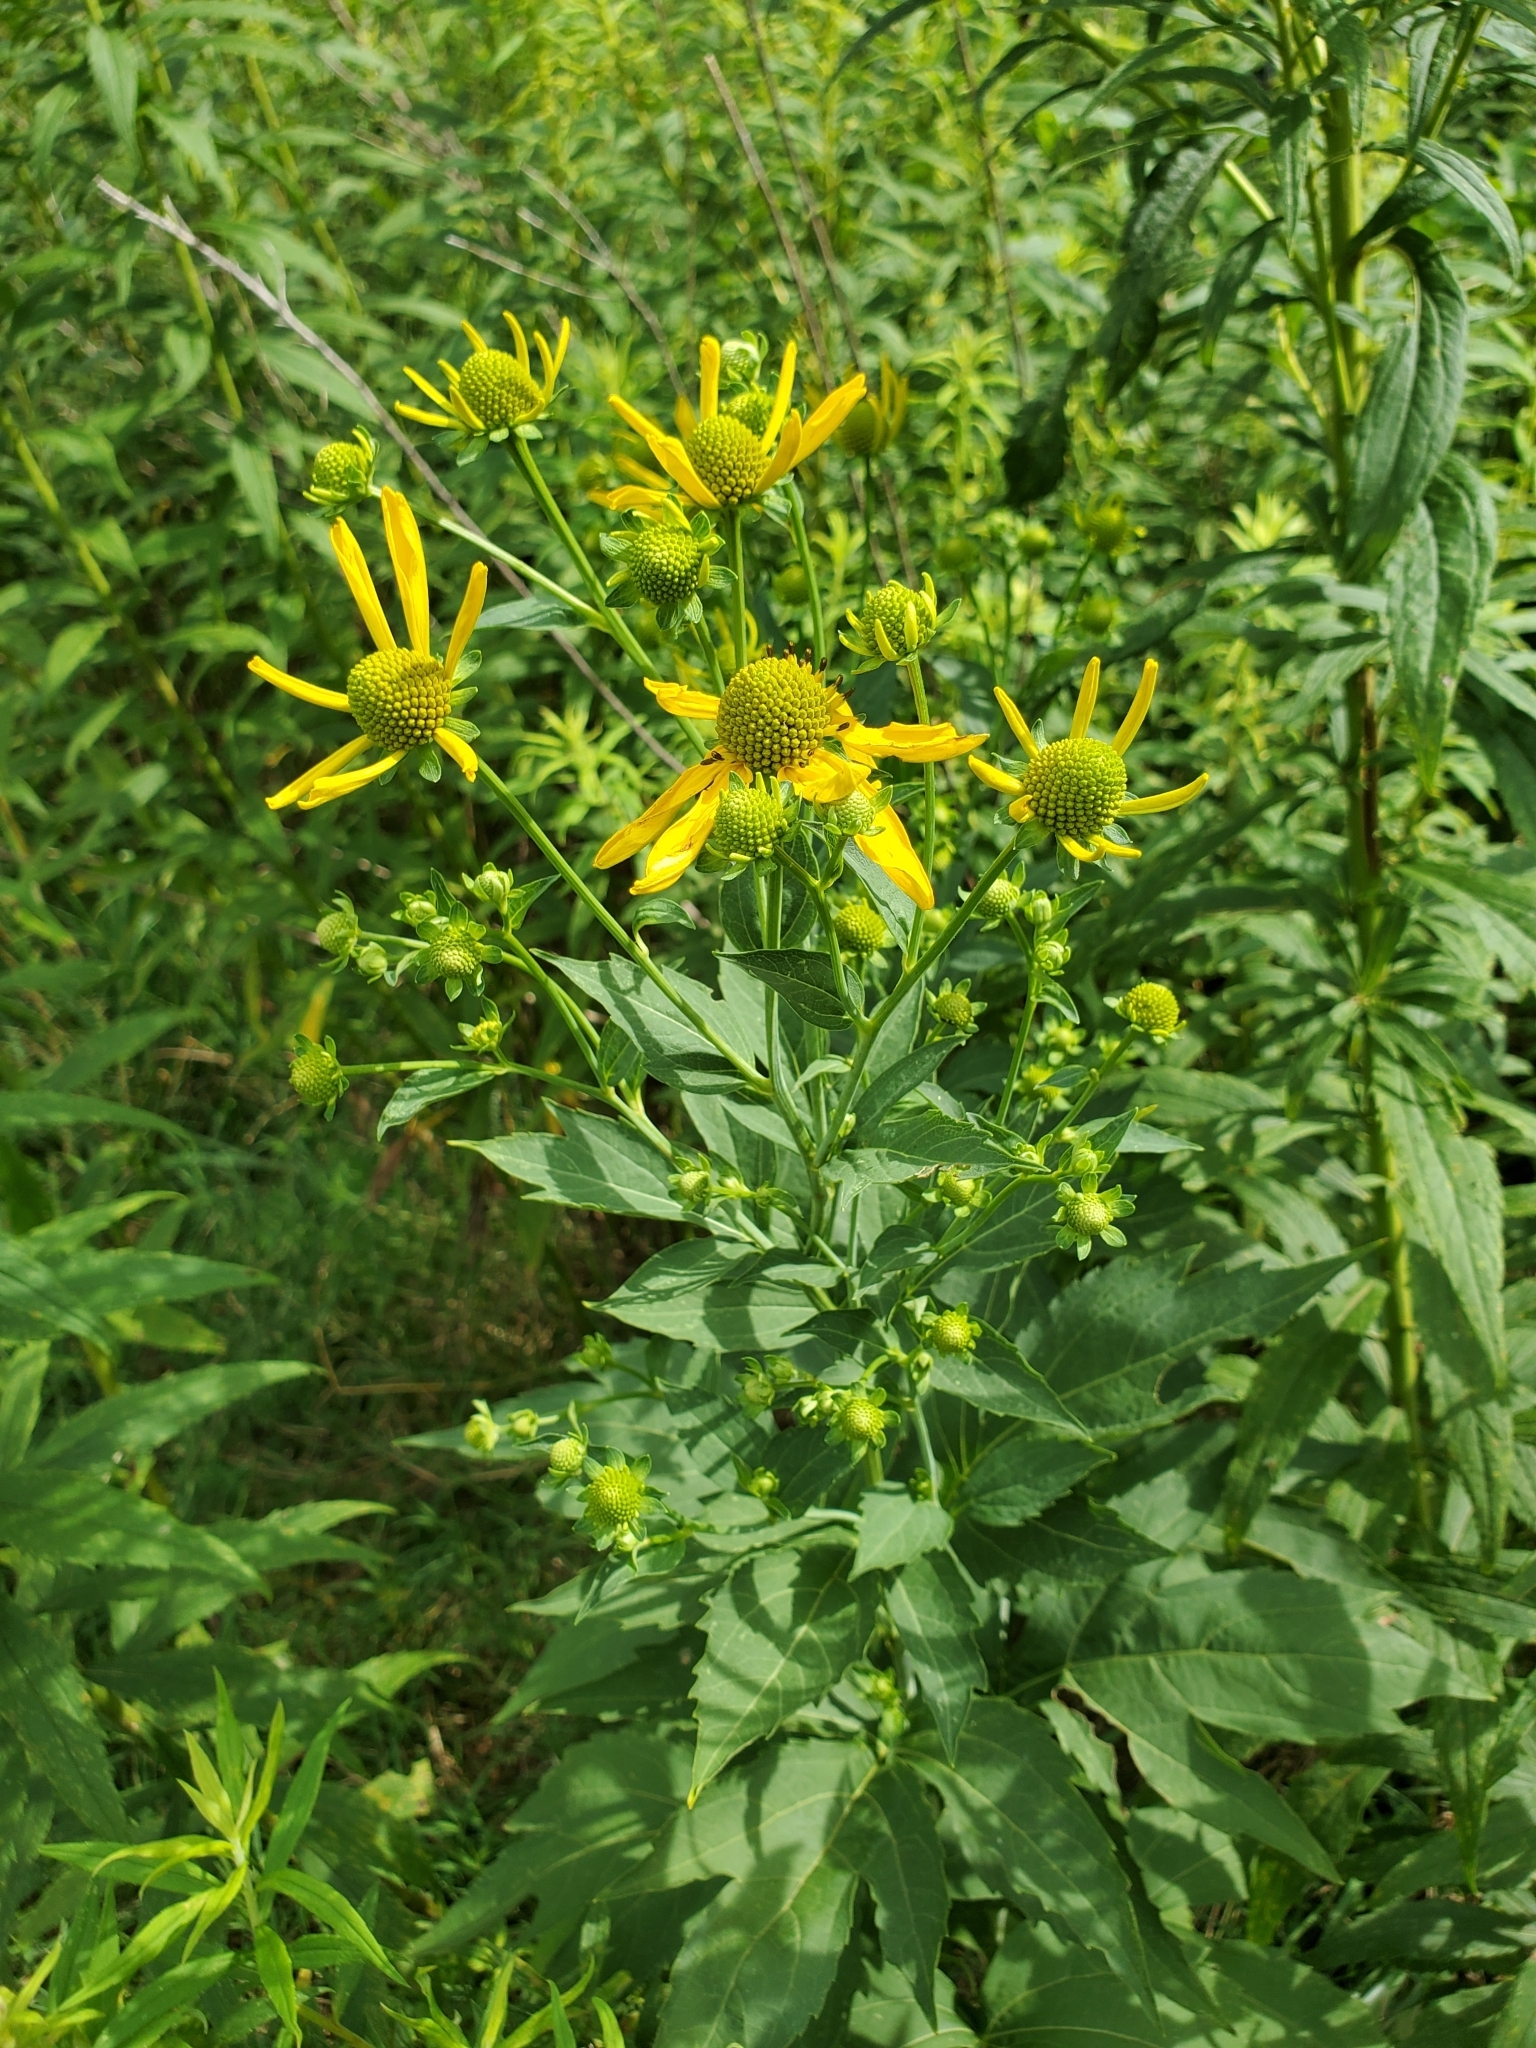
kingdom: Plantae
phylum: Tracheophyta
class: Magnoliopsida
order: Asterales
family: Asteraceae
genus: Rudbeckia
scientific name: Rudbeckia laciniata
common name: Coneflower
